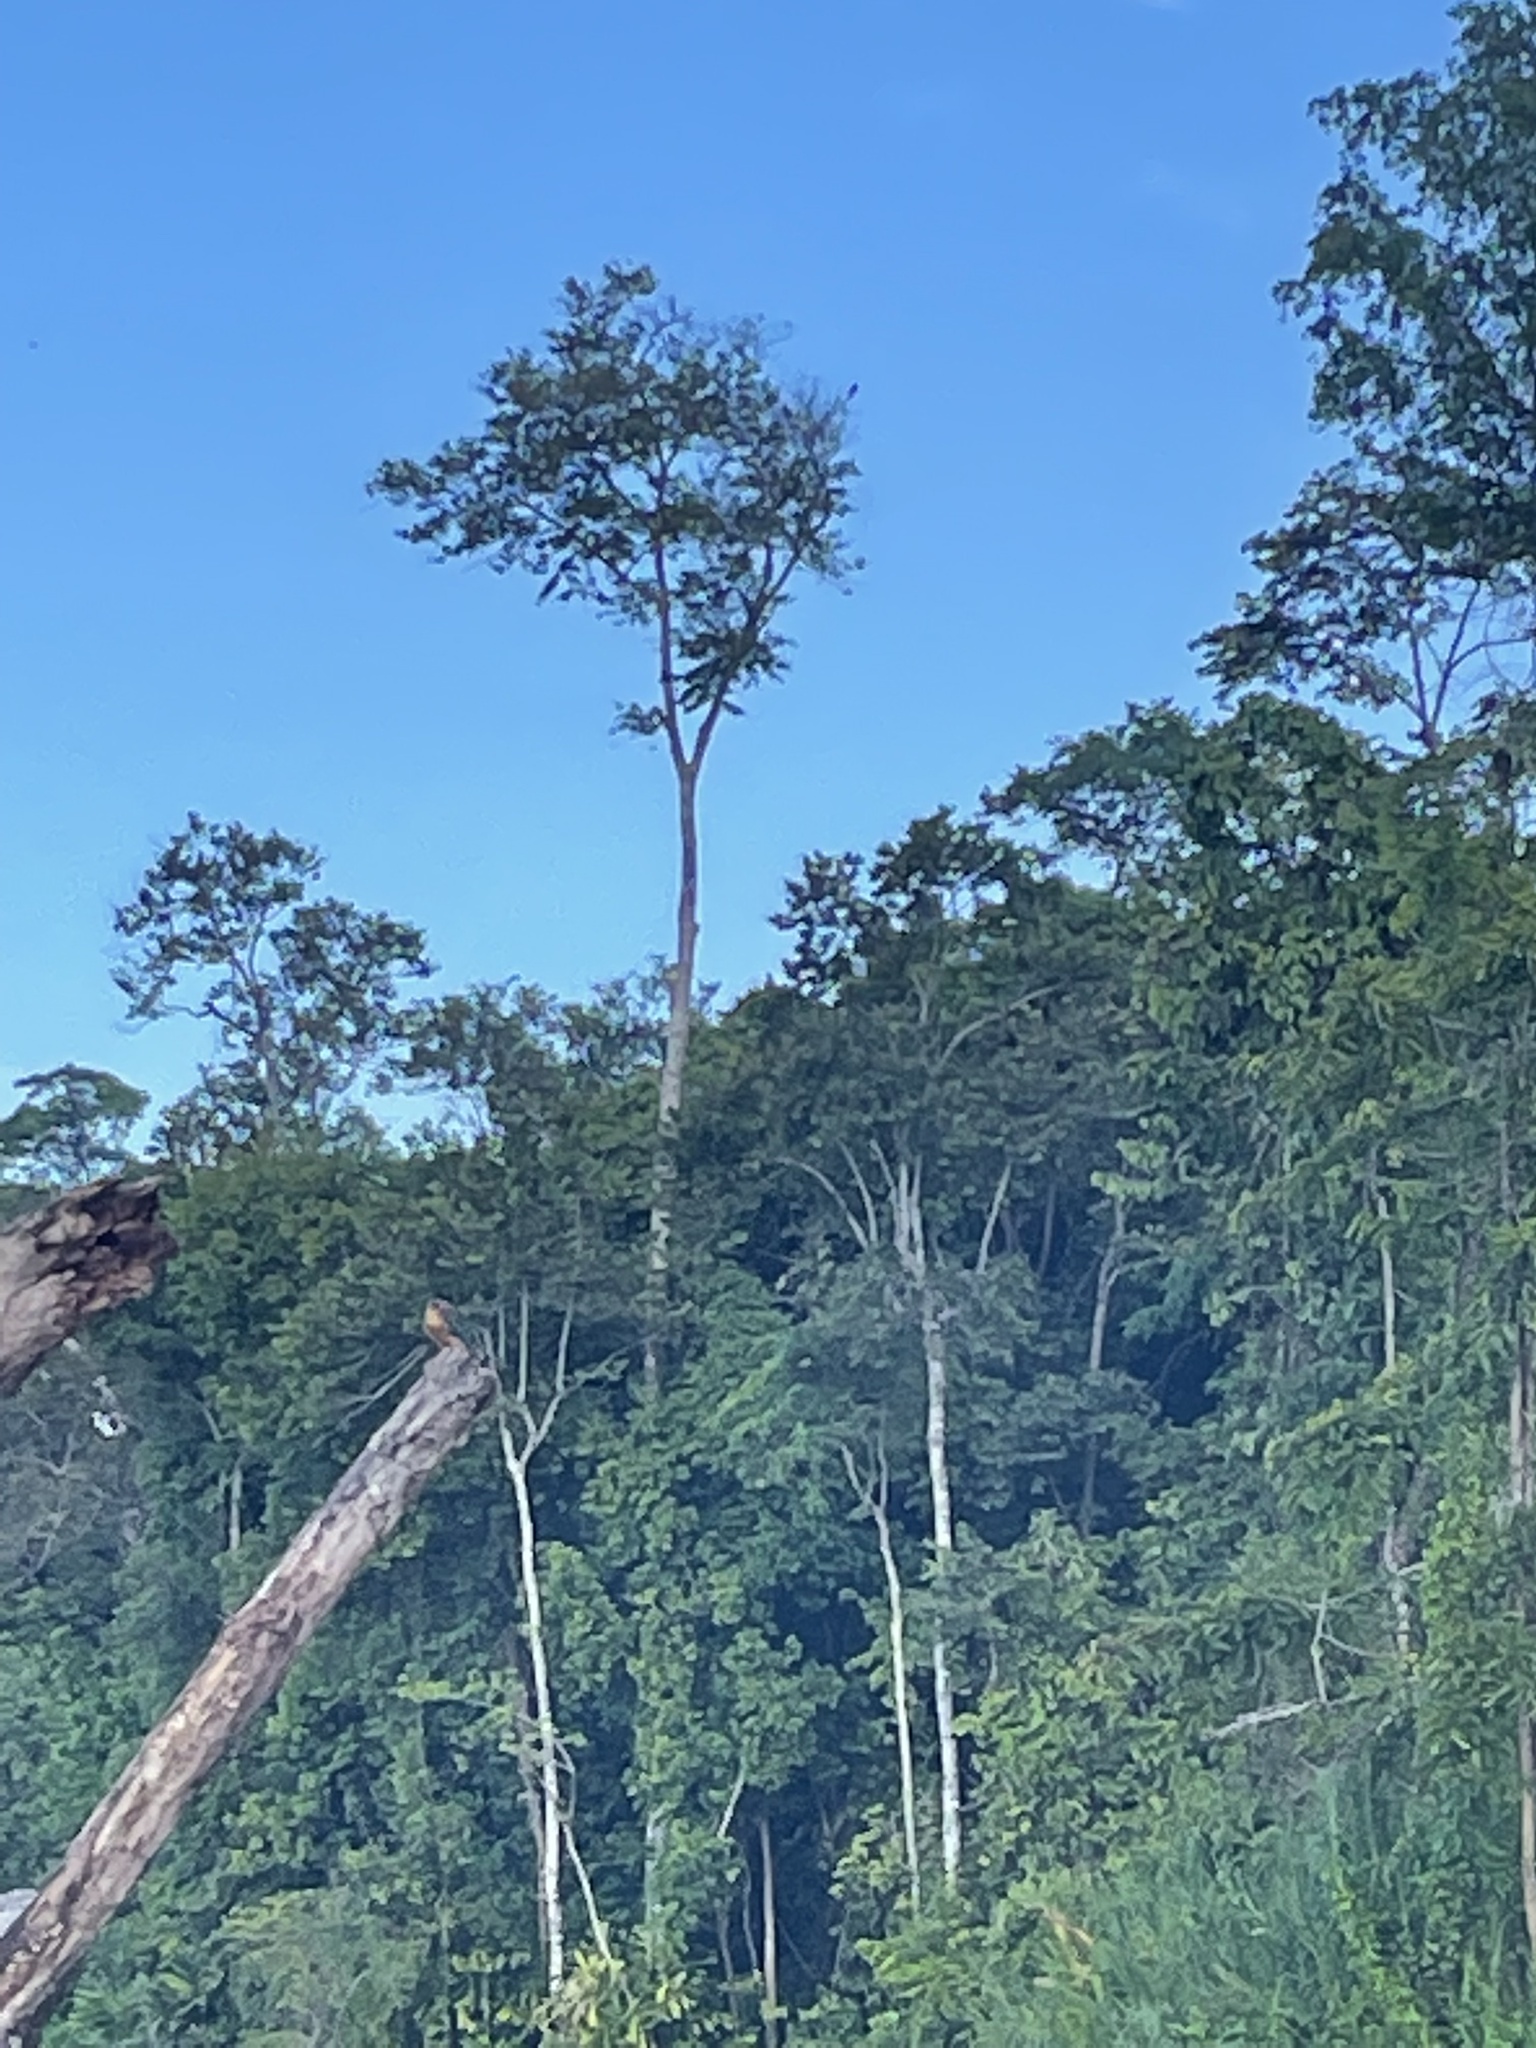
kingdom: Animalia
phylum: Chordata
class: Aves
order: Coraciiformes
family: Alcedinidae
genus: Pelargopsis
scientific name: Pelargopsis capensis
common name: Stork-billed kingfisher
